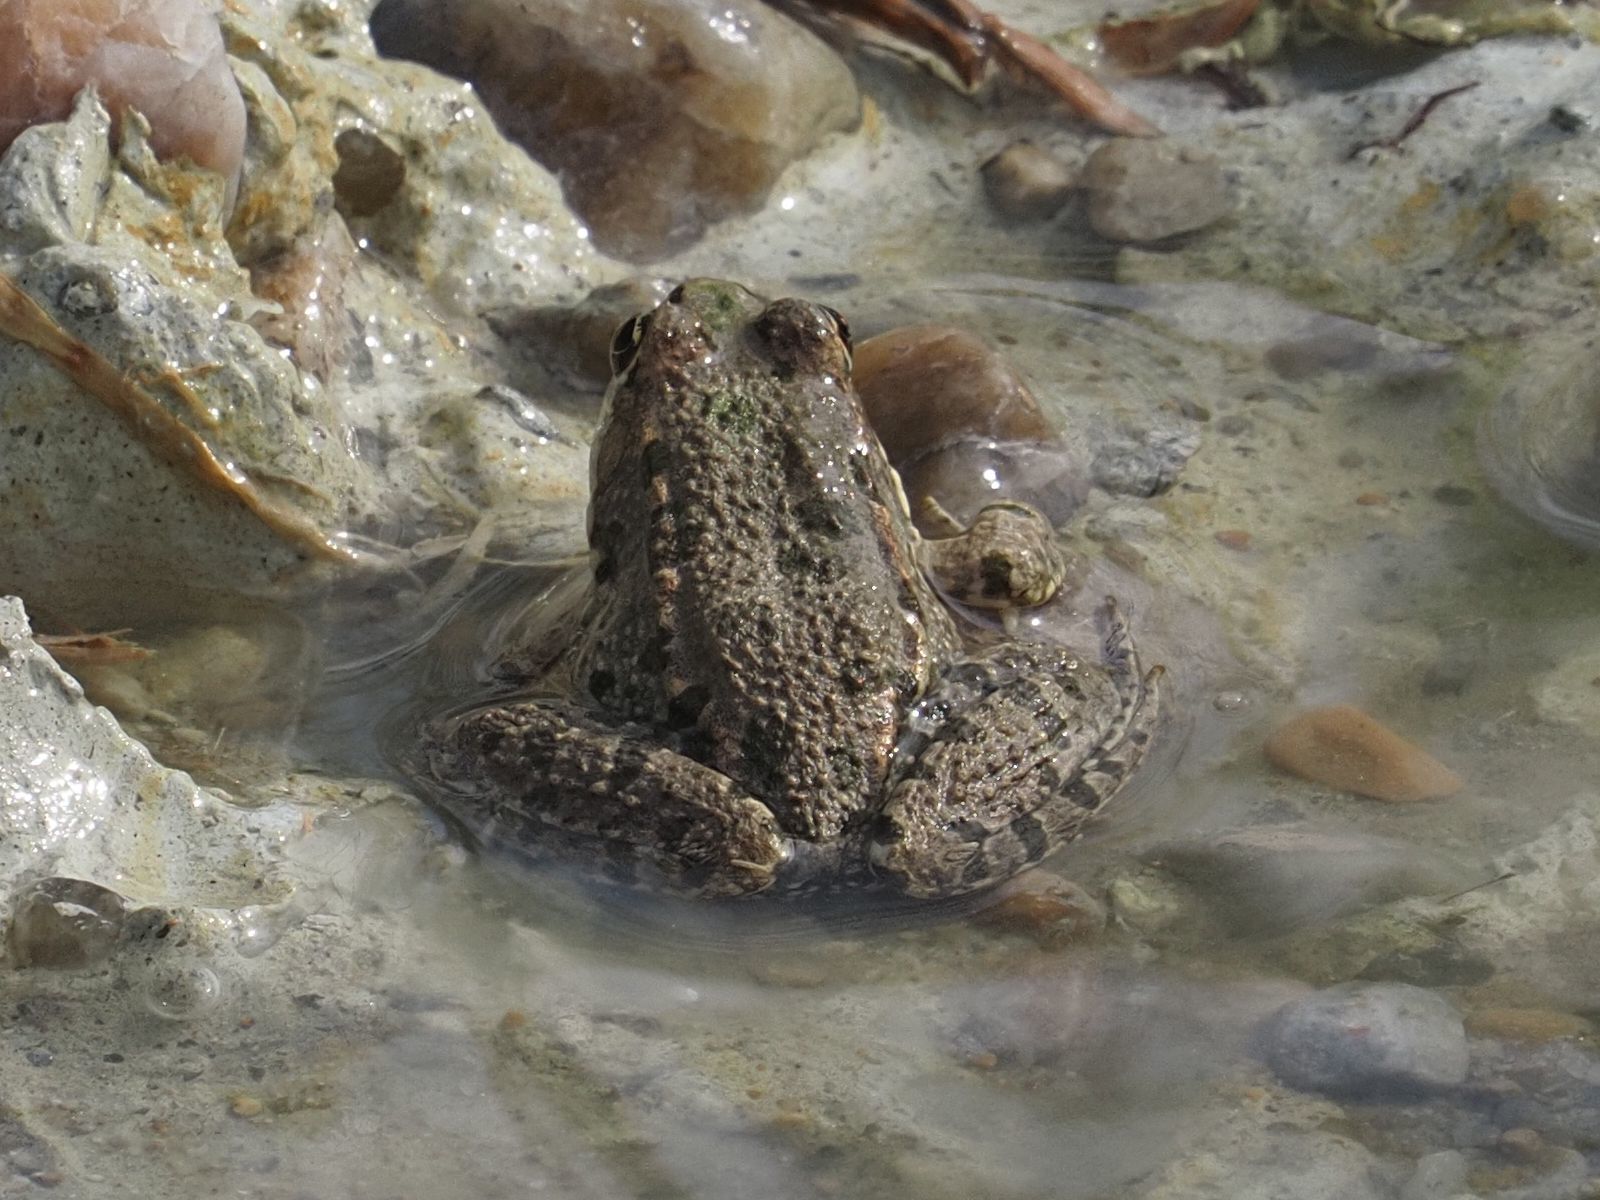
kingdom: Animalia
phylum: Chordata
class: Amphibia
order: Anura
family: Ranidae
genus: Pelophylax
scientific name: Pelophylax
